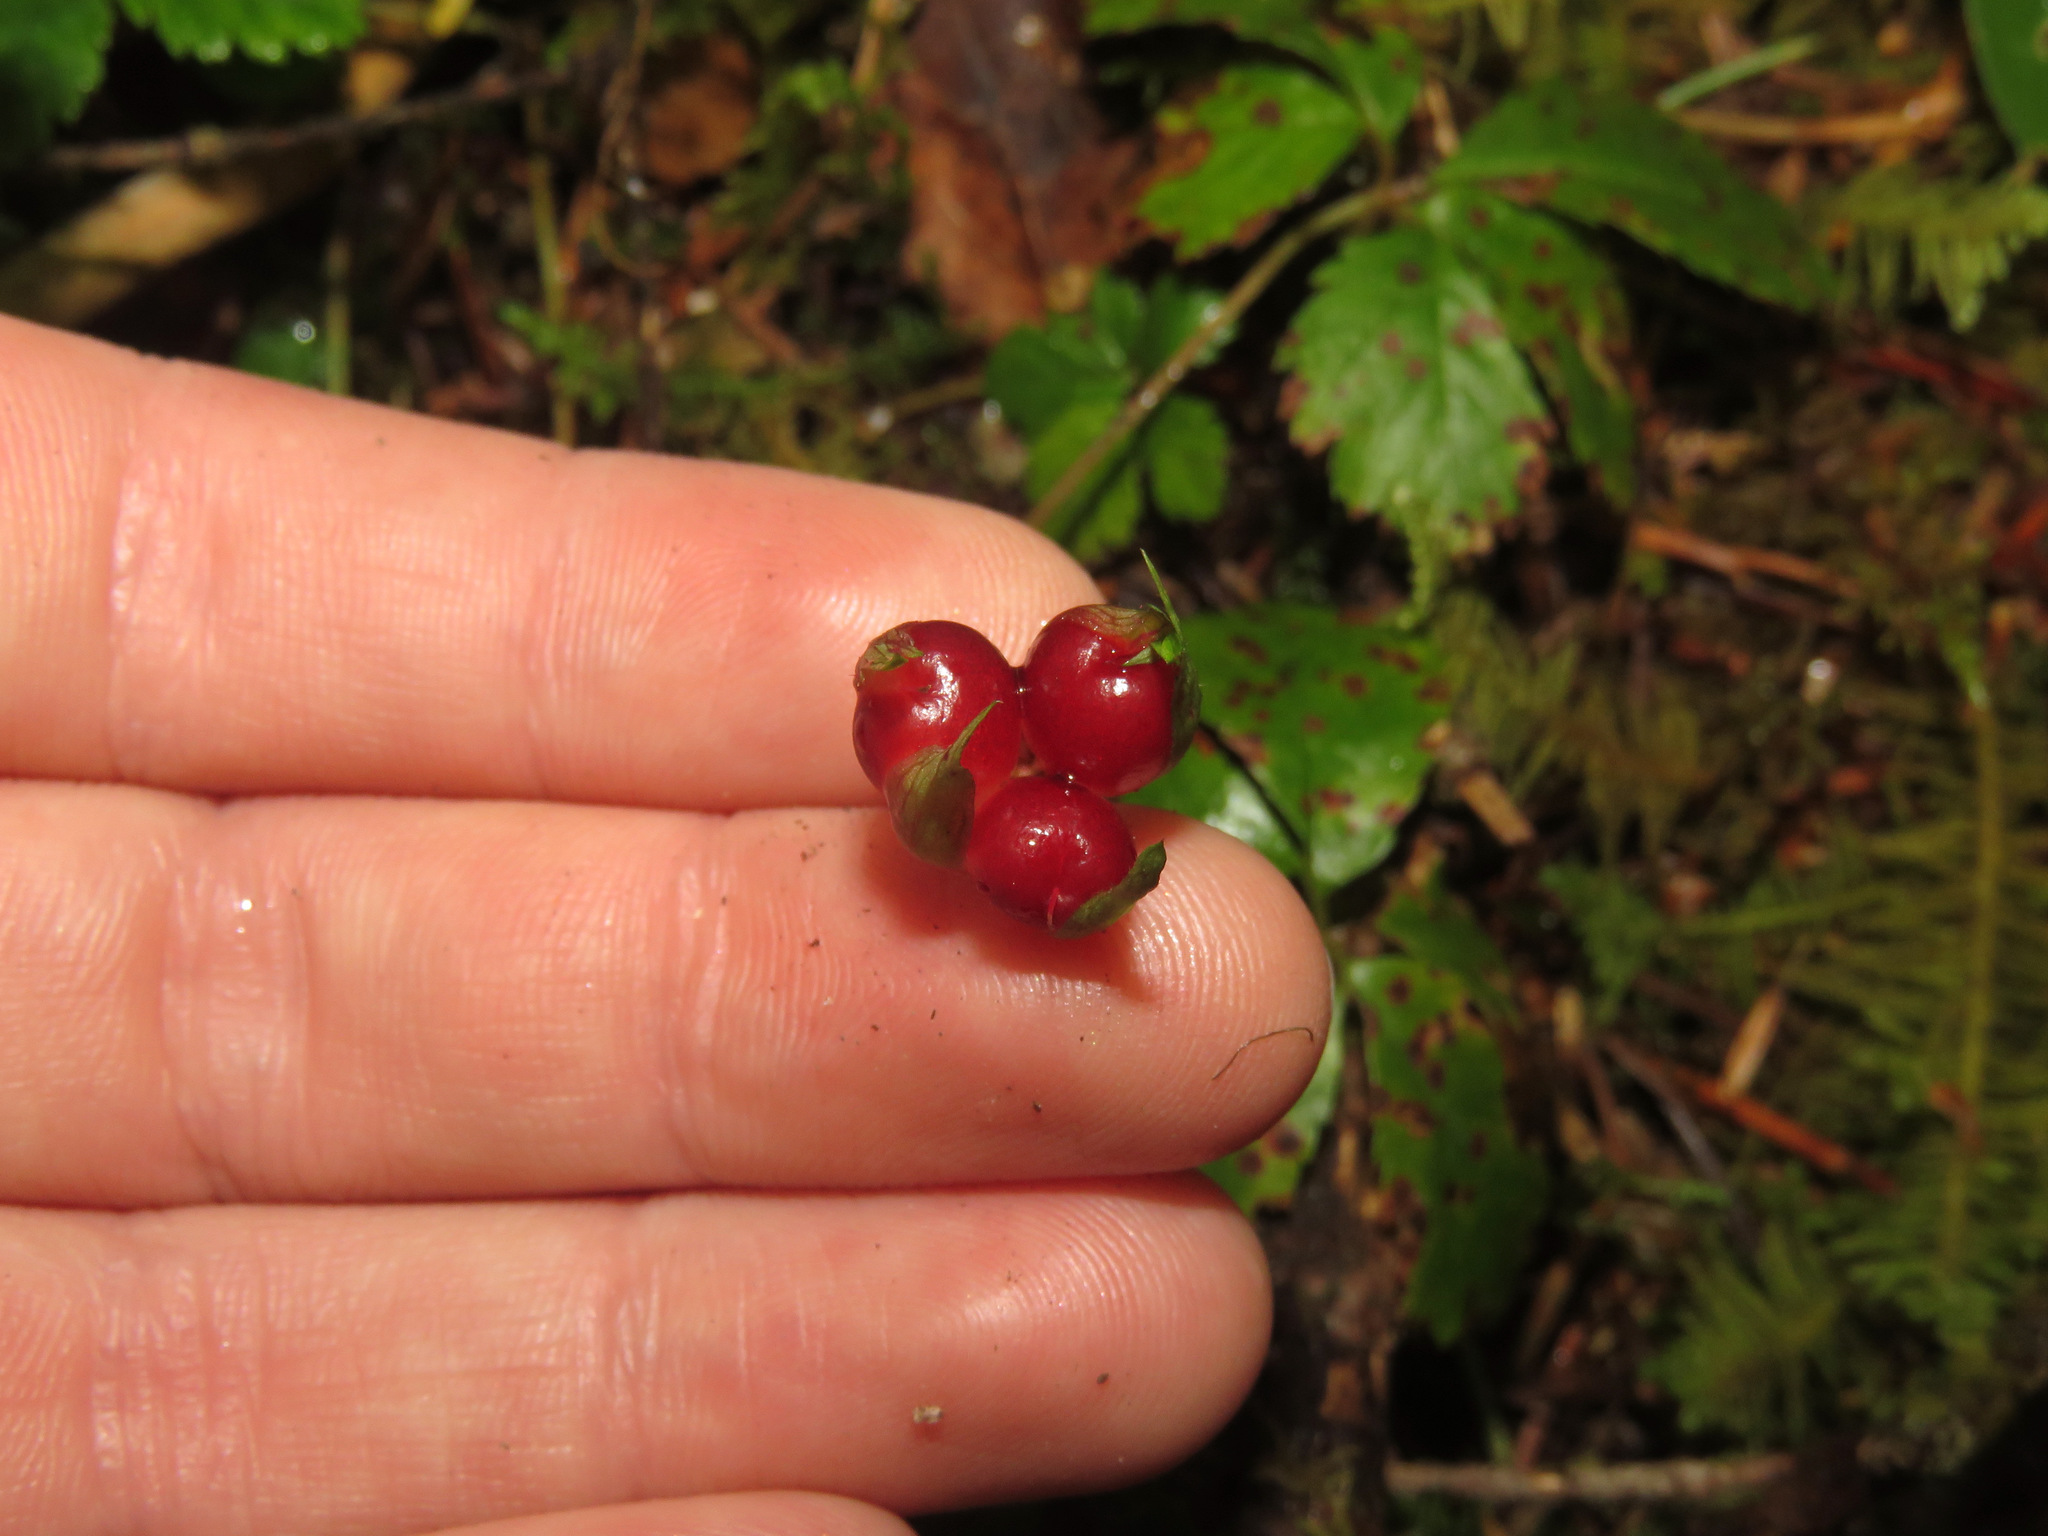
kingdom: Plantae
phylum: Tracheophyta
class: Magnoliopsida
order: Rosales
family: Rosaceae
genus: Rubus
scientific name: Rubus pedatus
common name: Creeping raspberry
